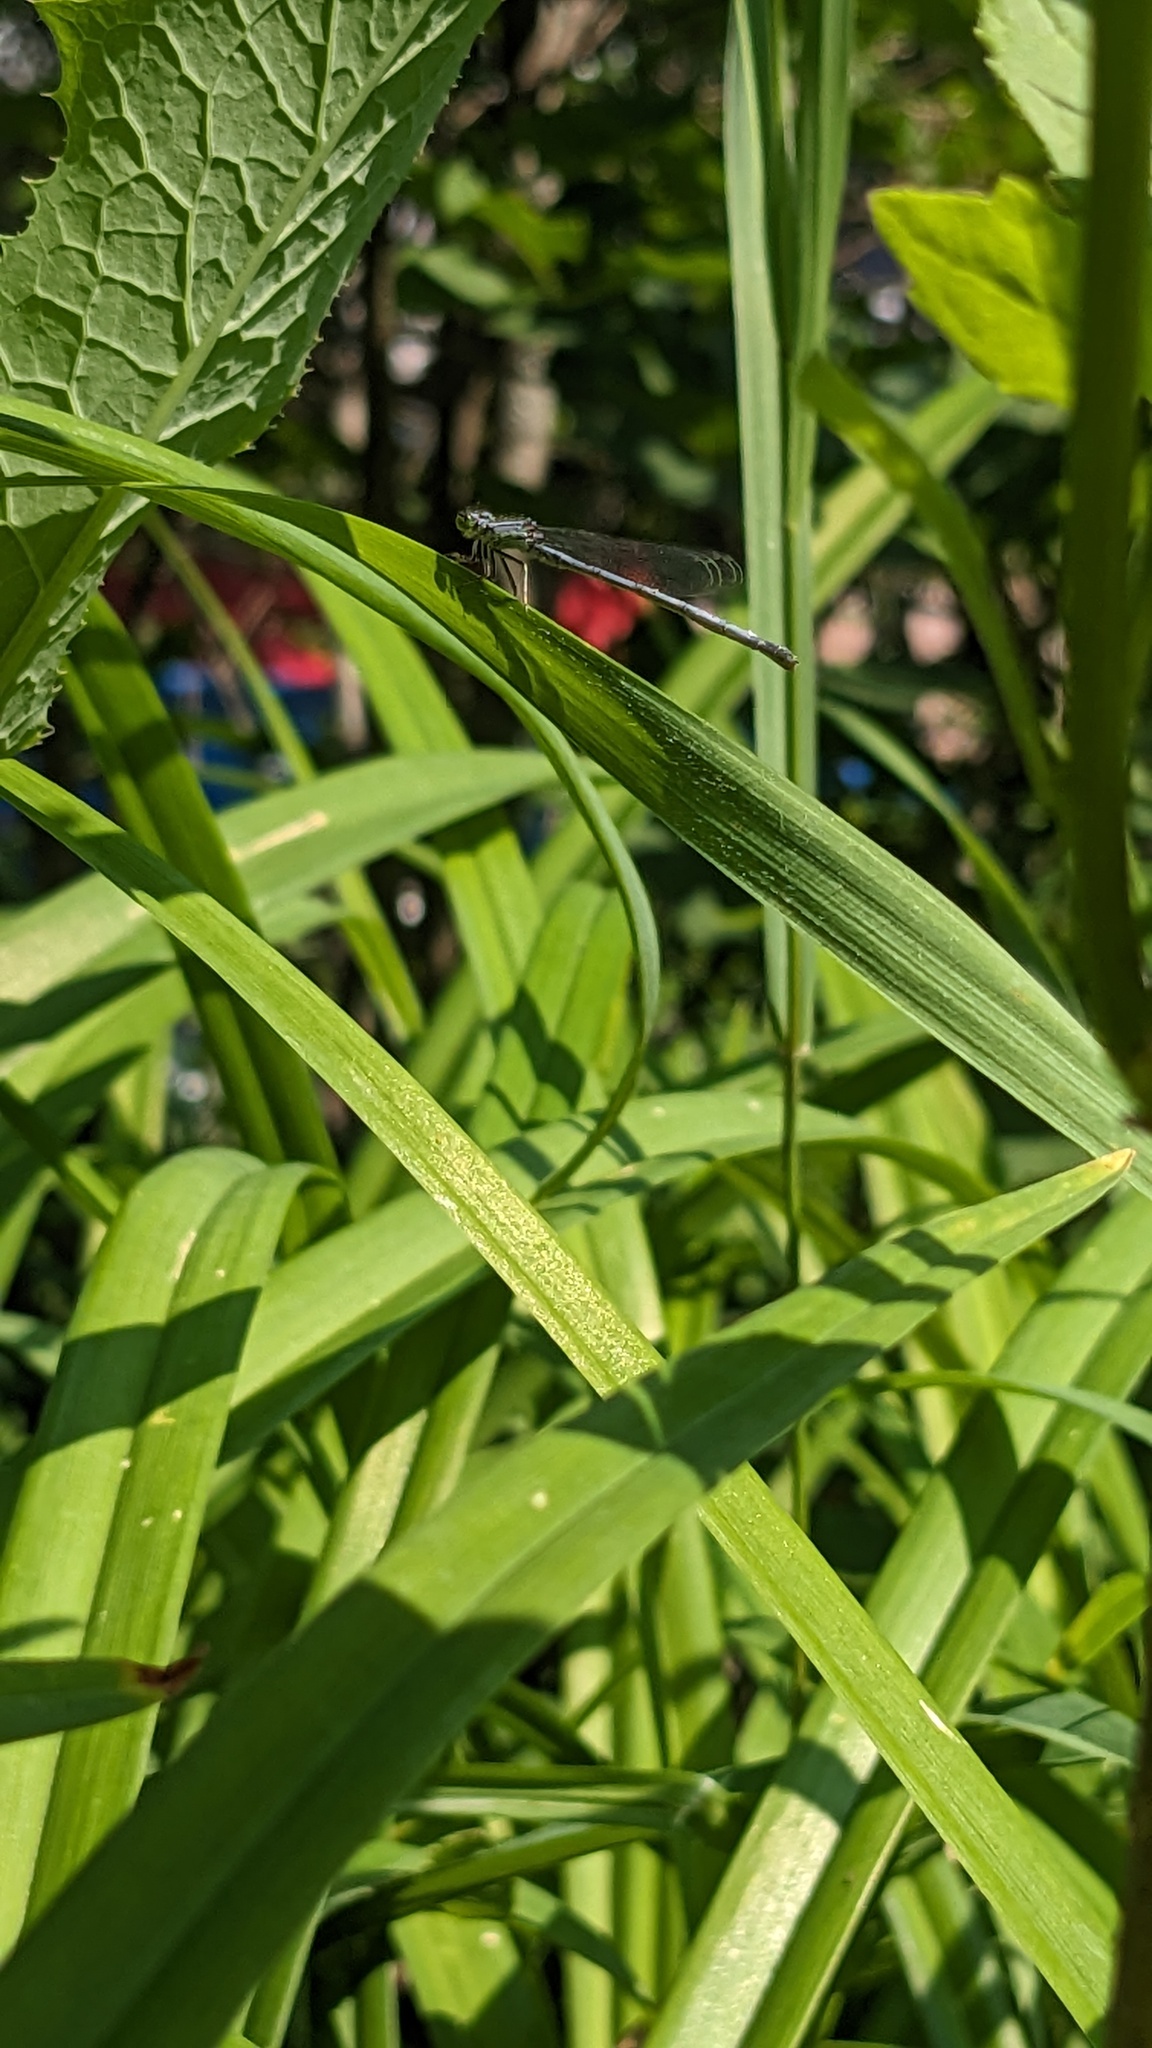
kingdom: Animalia
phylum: Arthropoda
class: Insecta
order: Odonata
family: Coenagrionidae
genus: Ischnura
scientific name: Ischnura verticalis
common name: Eastern forktail
